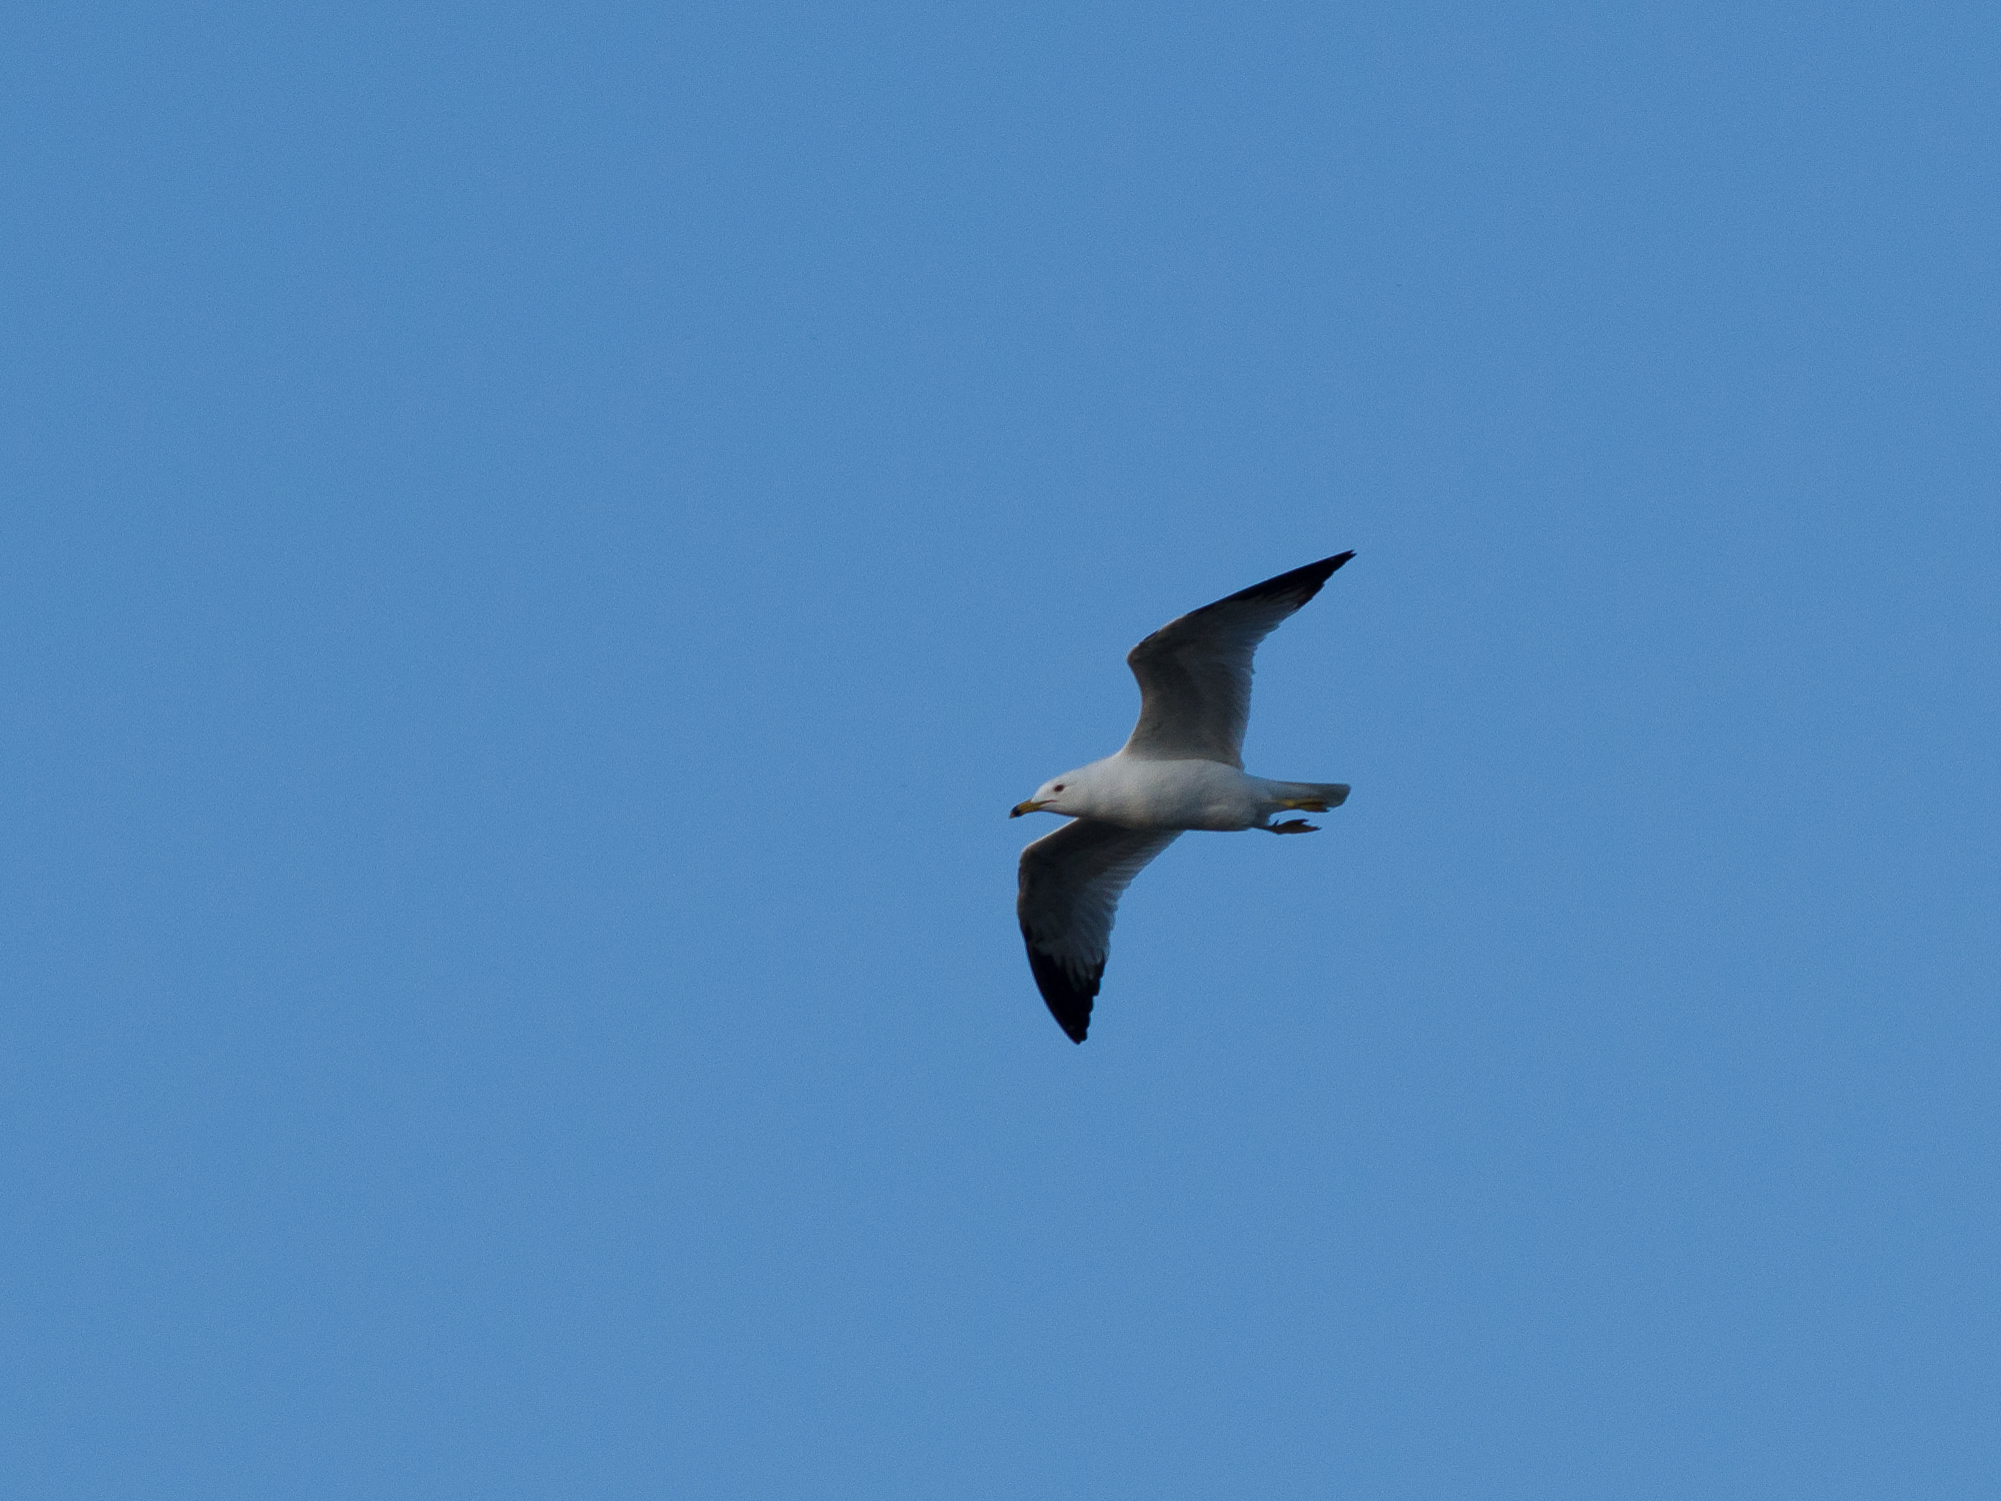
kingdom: Animalia
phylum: Chordata
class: Aves
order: Charadriiformes
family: Laridae
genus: Larus
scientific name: Larus delawarensis
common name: Ring-billed gull
